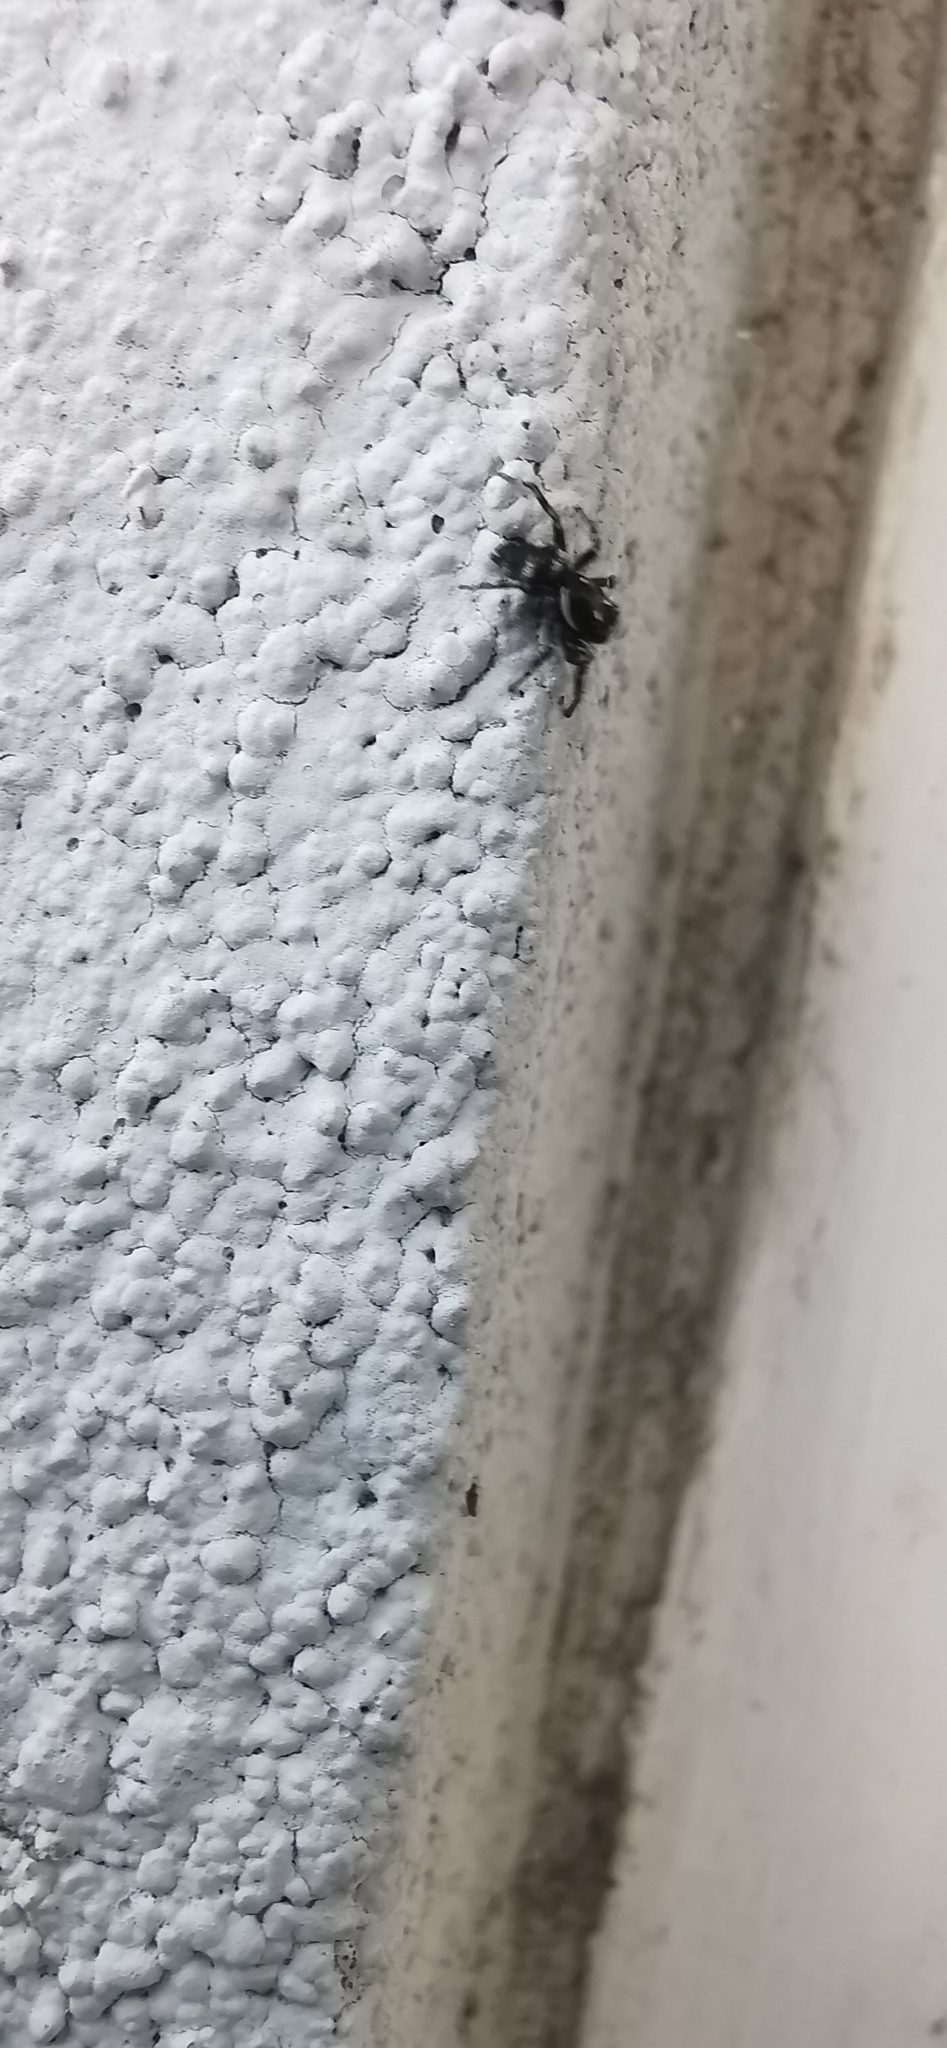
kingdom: Animalia
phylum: Arthropoda
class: Arachnida
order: Araneae
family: Salticidae
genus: Salticus
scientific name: Salticus scenicus
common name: Zebra jumper
